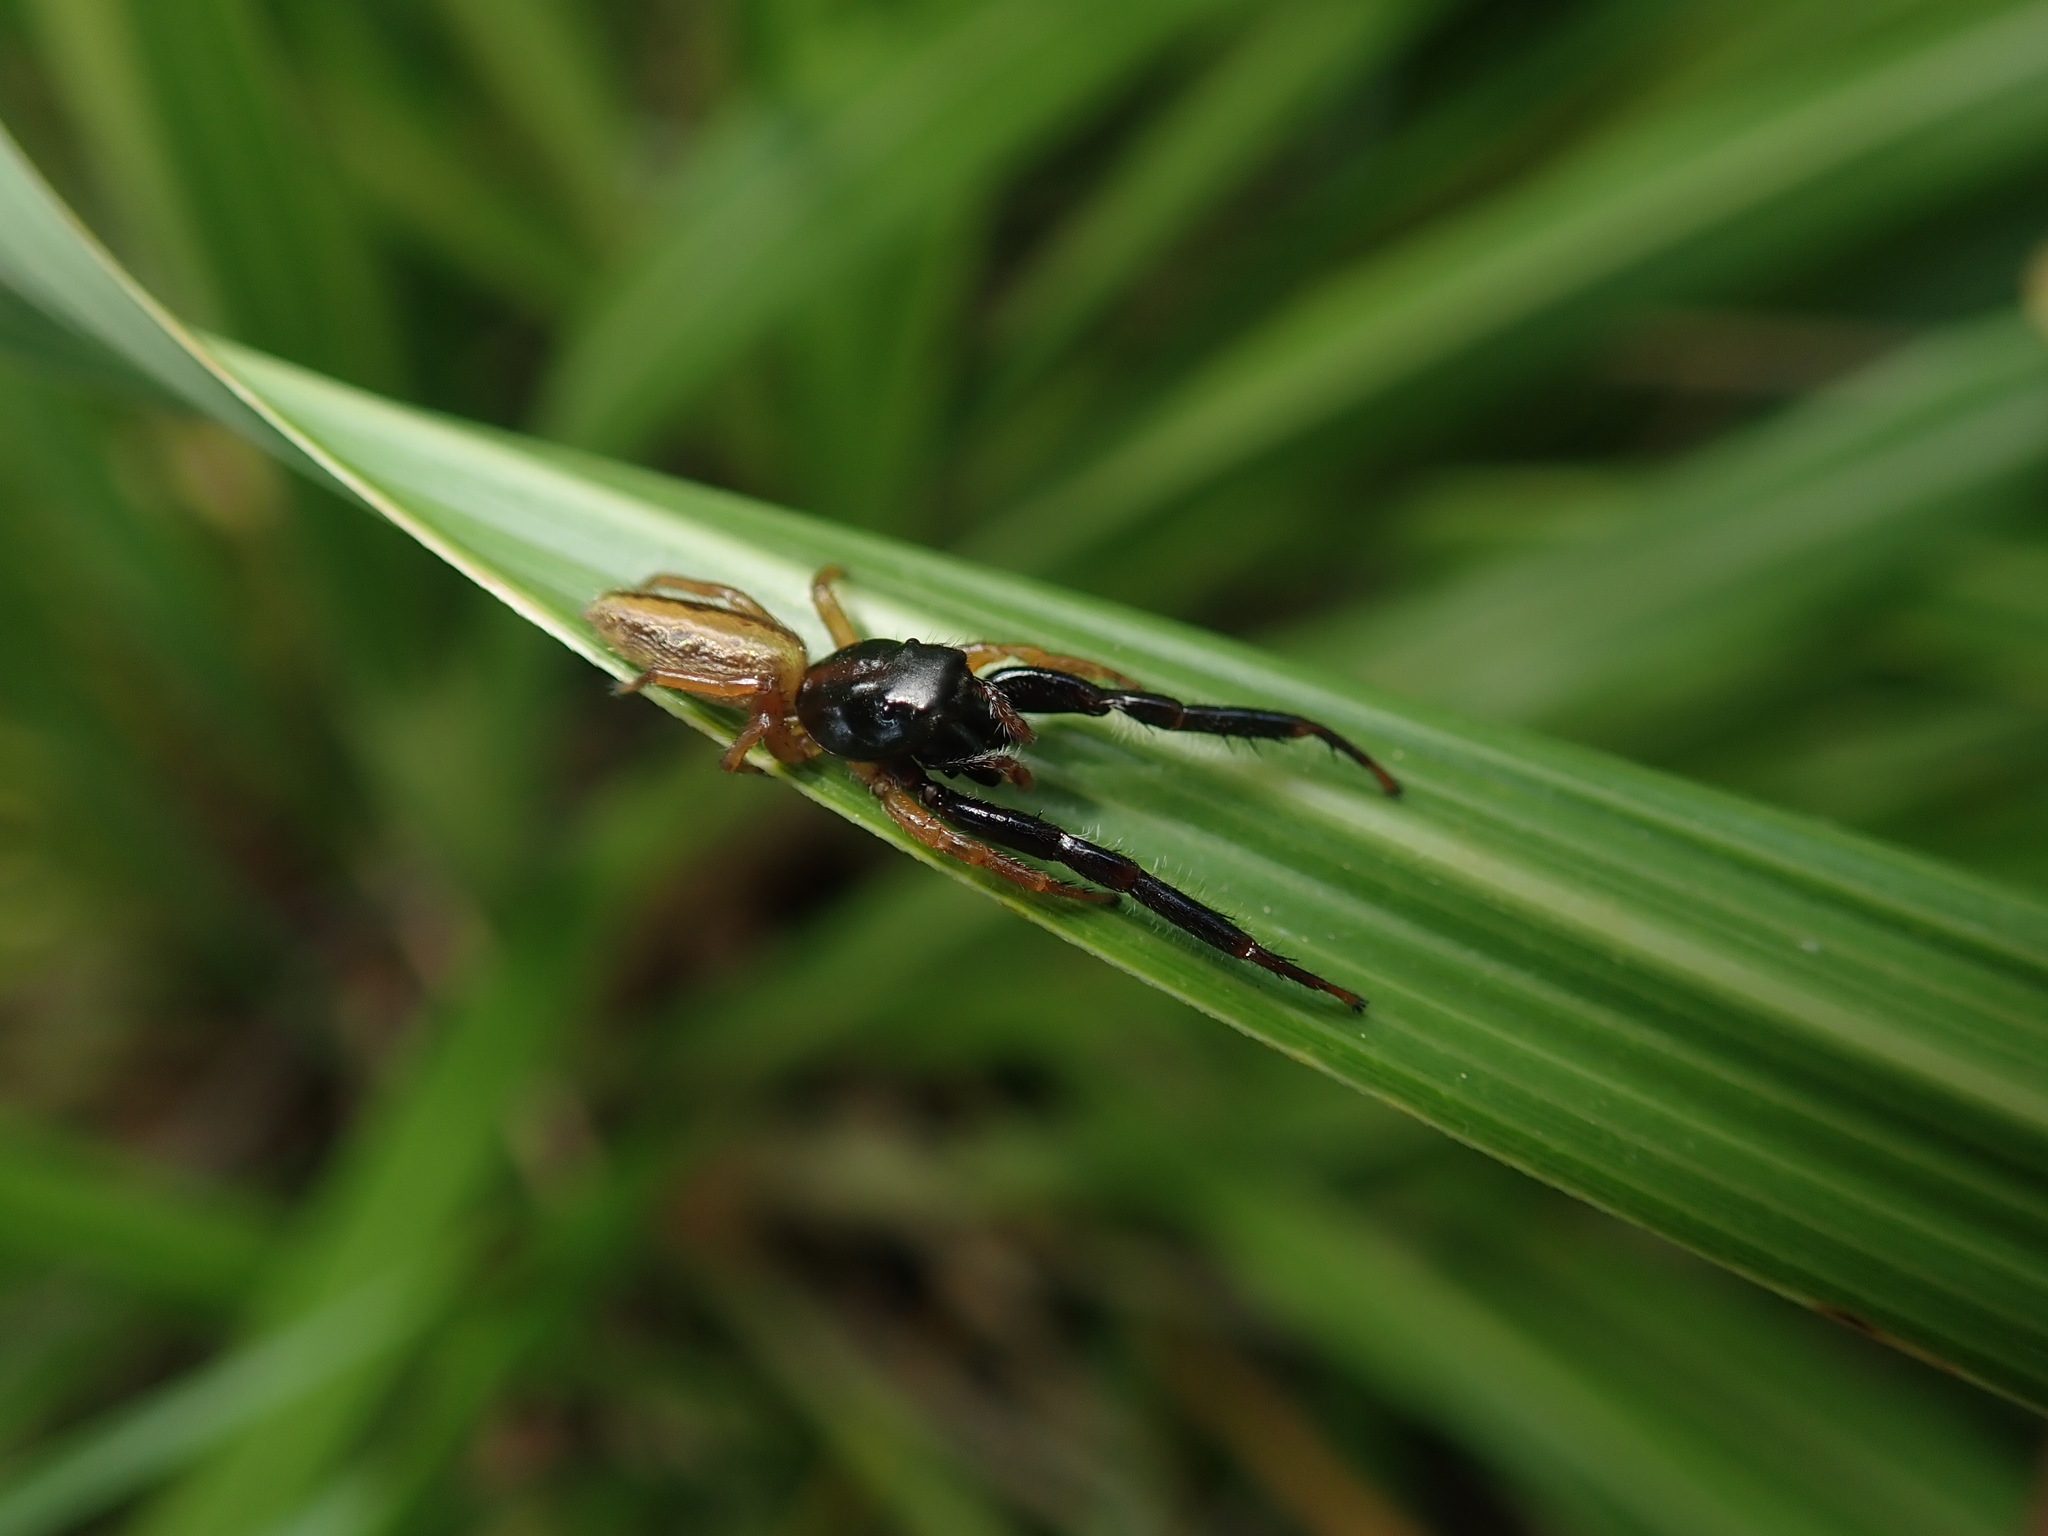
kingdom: Animalia
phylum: Arthropoda
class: Arachnida
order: Araneae
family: Salticidae
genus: Trite
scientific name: Trite planiceps
